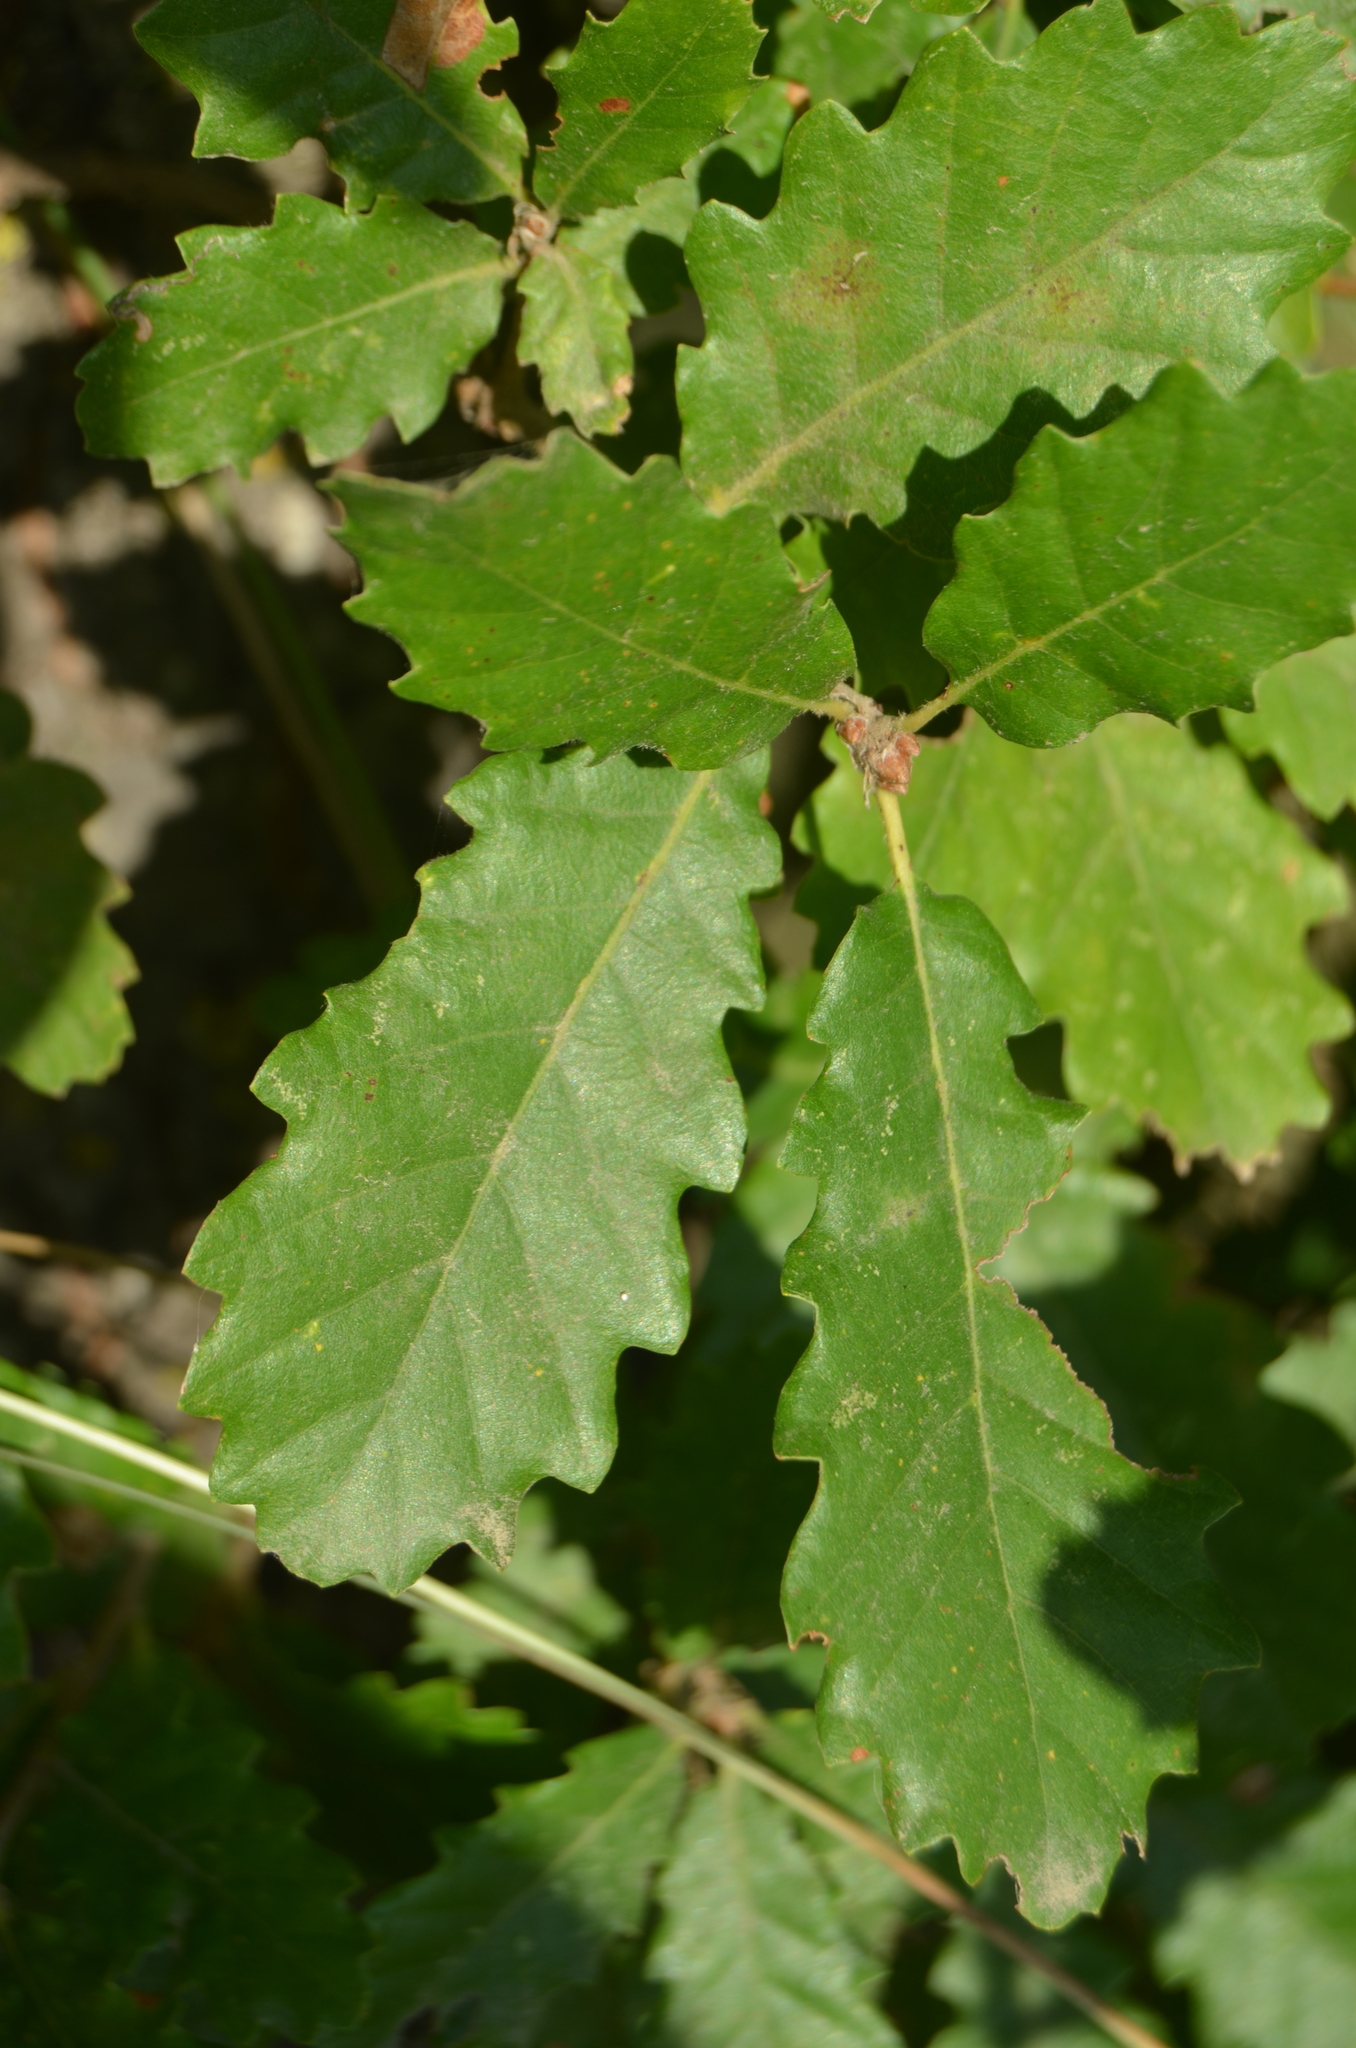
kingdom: Plantae
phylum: Tracheophyta
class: Magnoliopsida
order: Fagales
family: Fagaceae
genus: Quercus
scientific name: Quercus petraea
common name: Sessile oak
